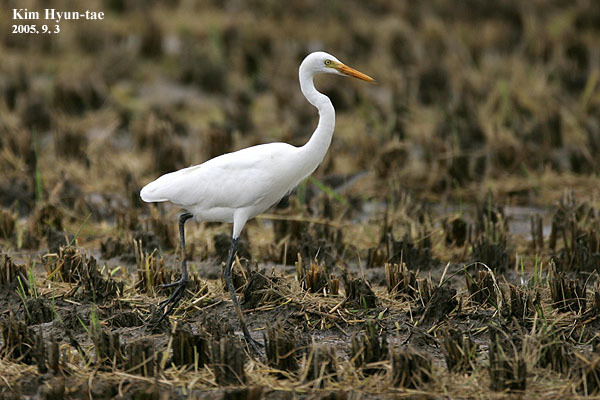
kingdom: Animalia
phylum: Chordata
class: Aves
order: Pelecaniformes
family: Ardeidae
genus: Egretta
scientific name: Egretta intermedia
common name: Intermediate egret
